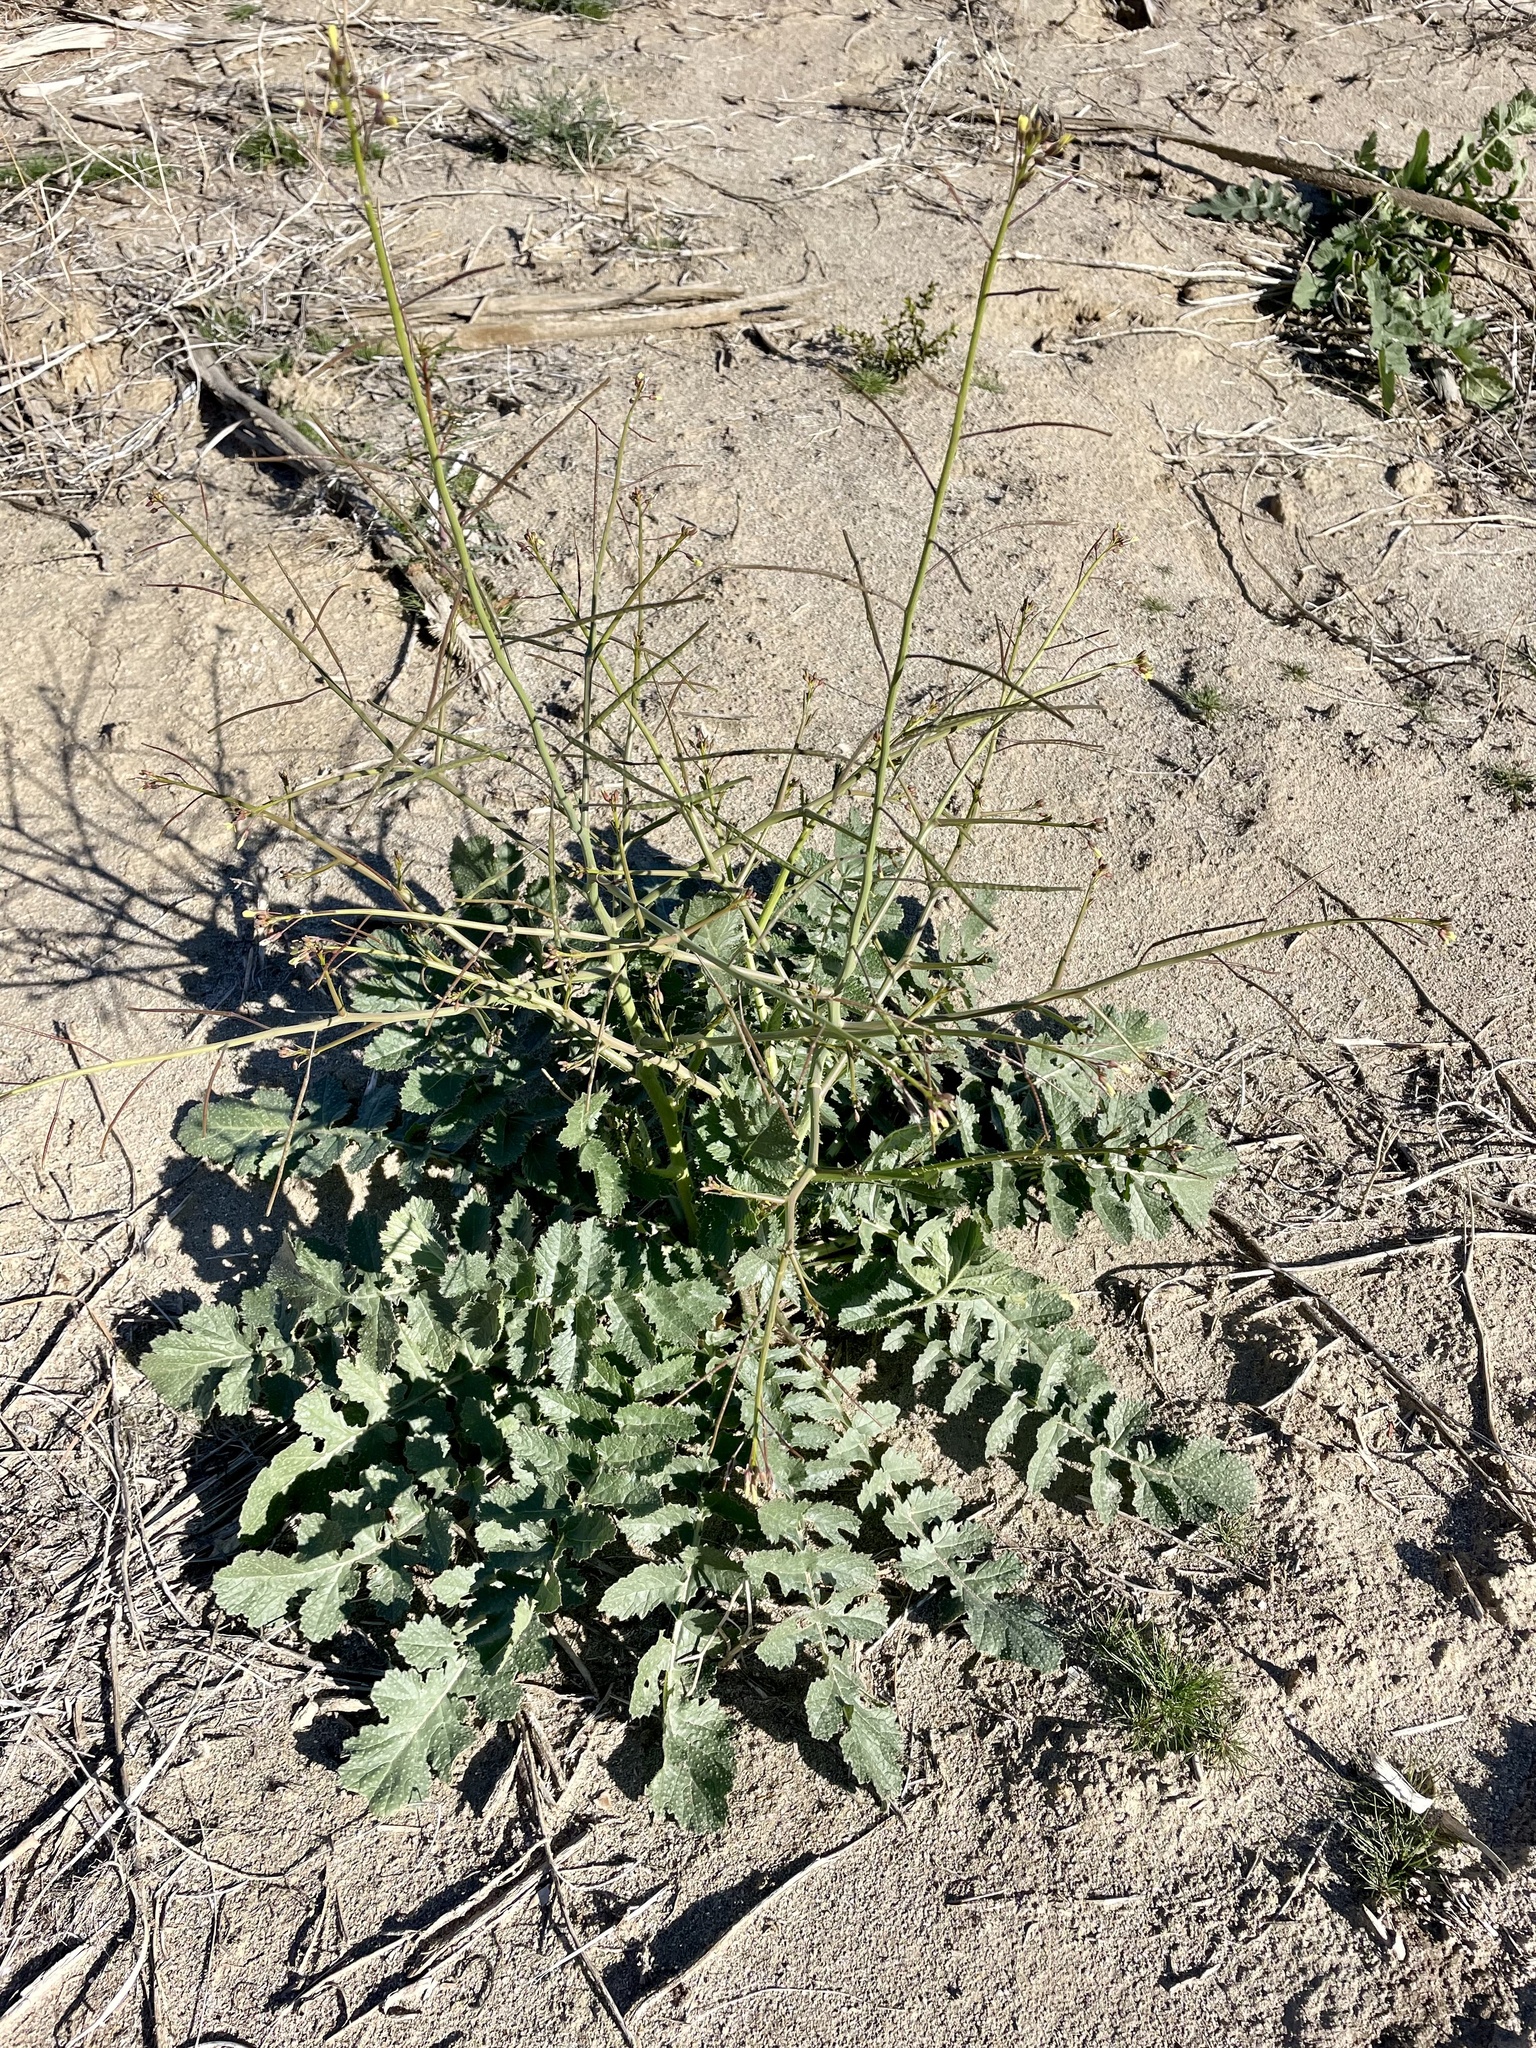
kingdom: Plantae
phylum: Tracheophyta
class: Magnoliopsida
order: Brassicales
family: Brassicaceae
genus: Brassica
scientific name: Brassica tournefortii
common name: Pale cabbage
